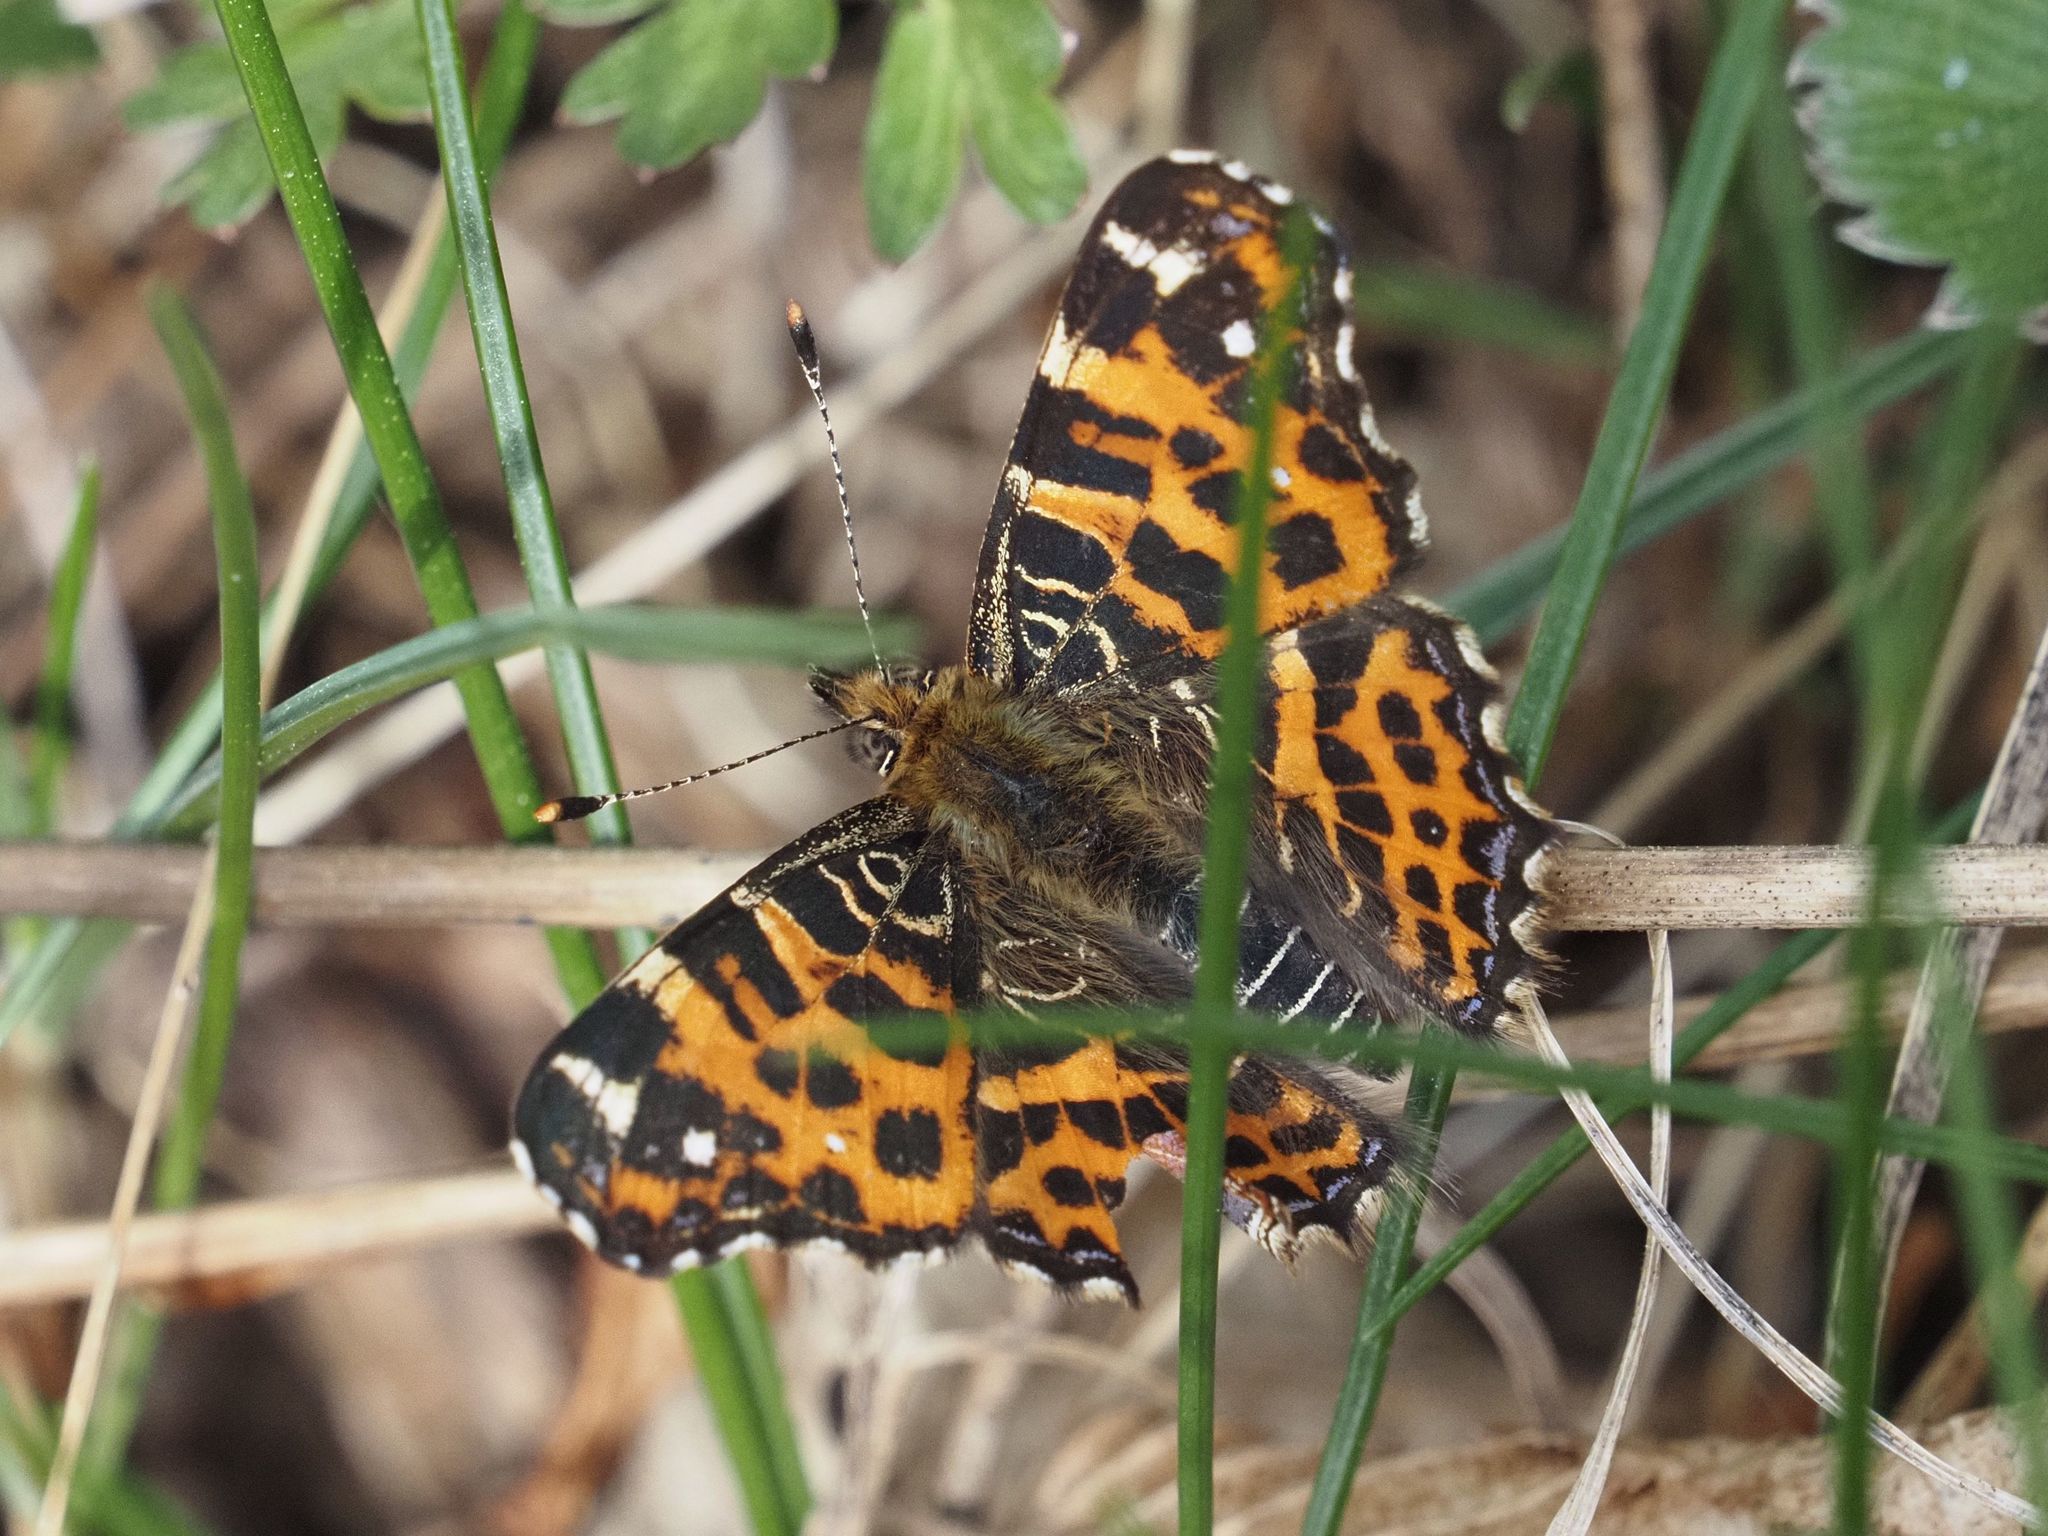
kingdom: Animalia
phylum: Arthropoda
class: Insecta
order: Lepidoptera
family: Nymphalidae
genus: Araschnia
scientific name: Araschnia levana
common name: Map butterfly
